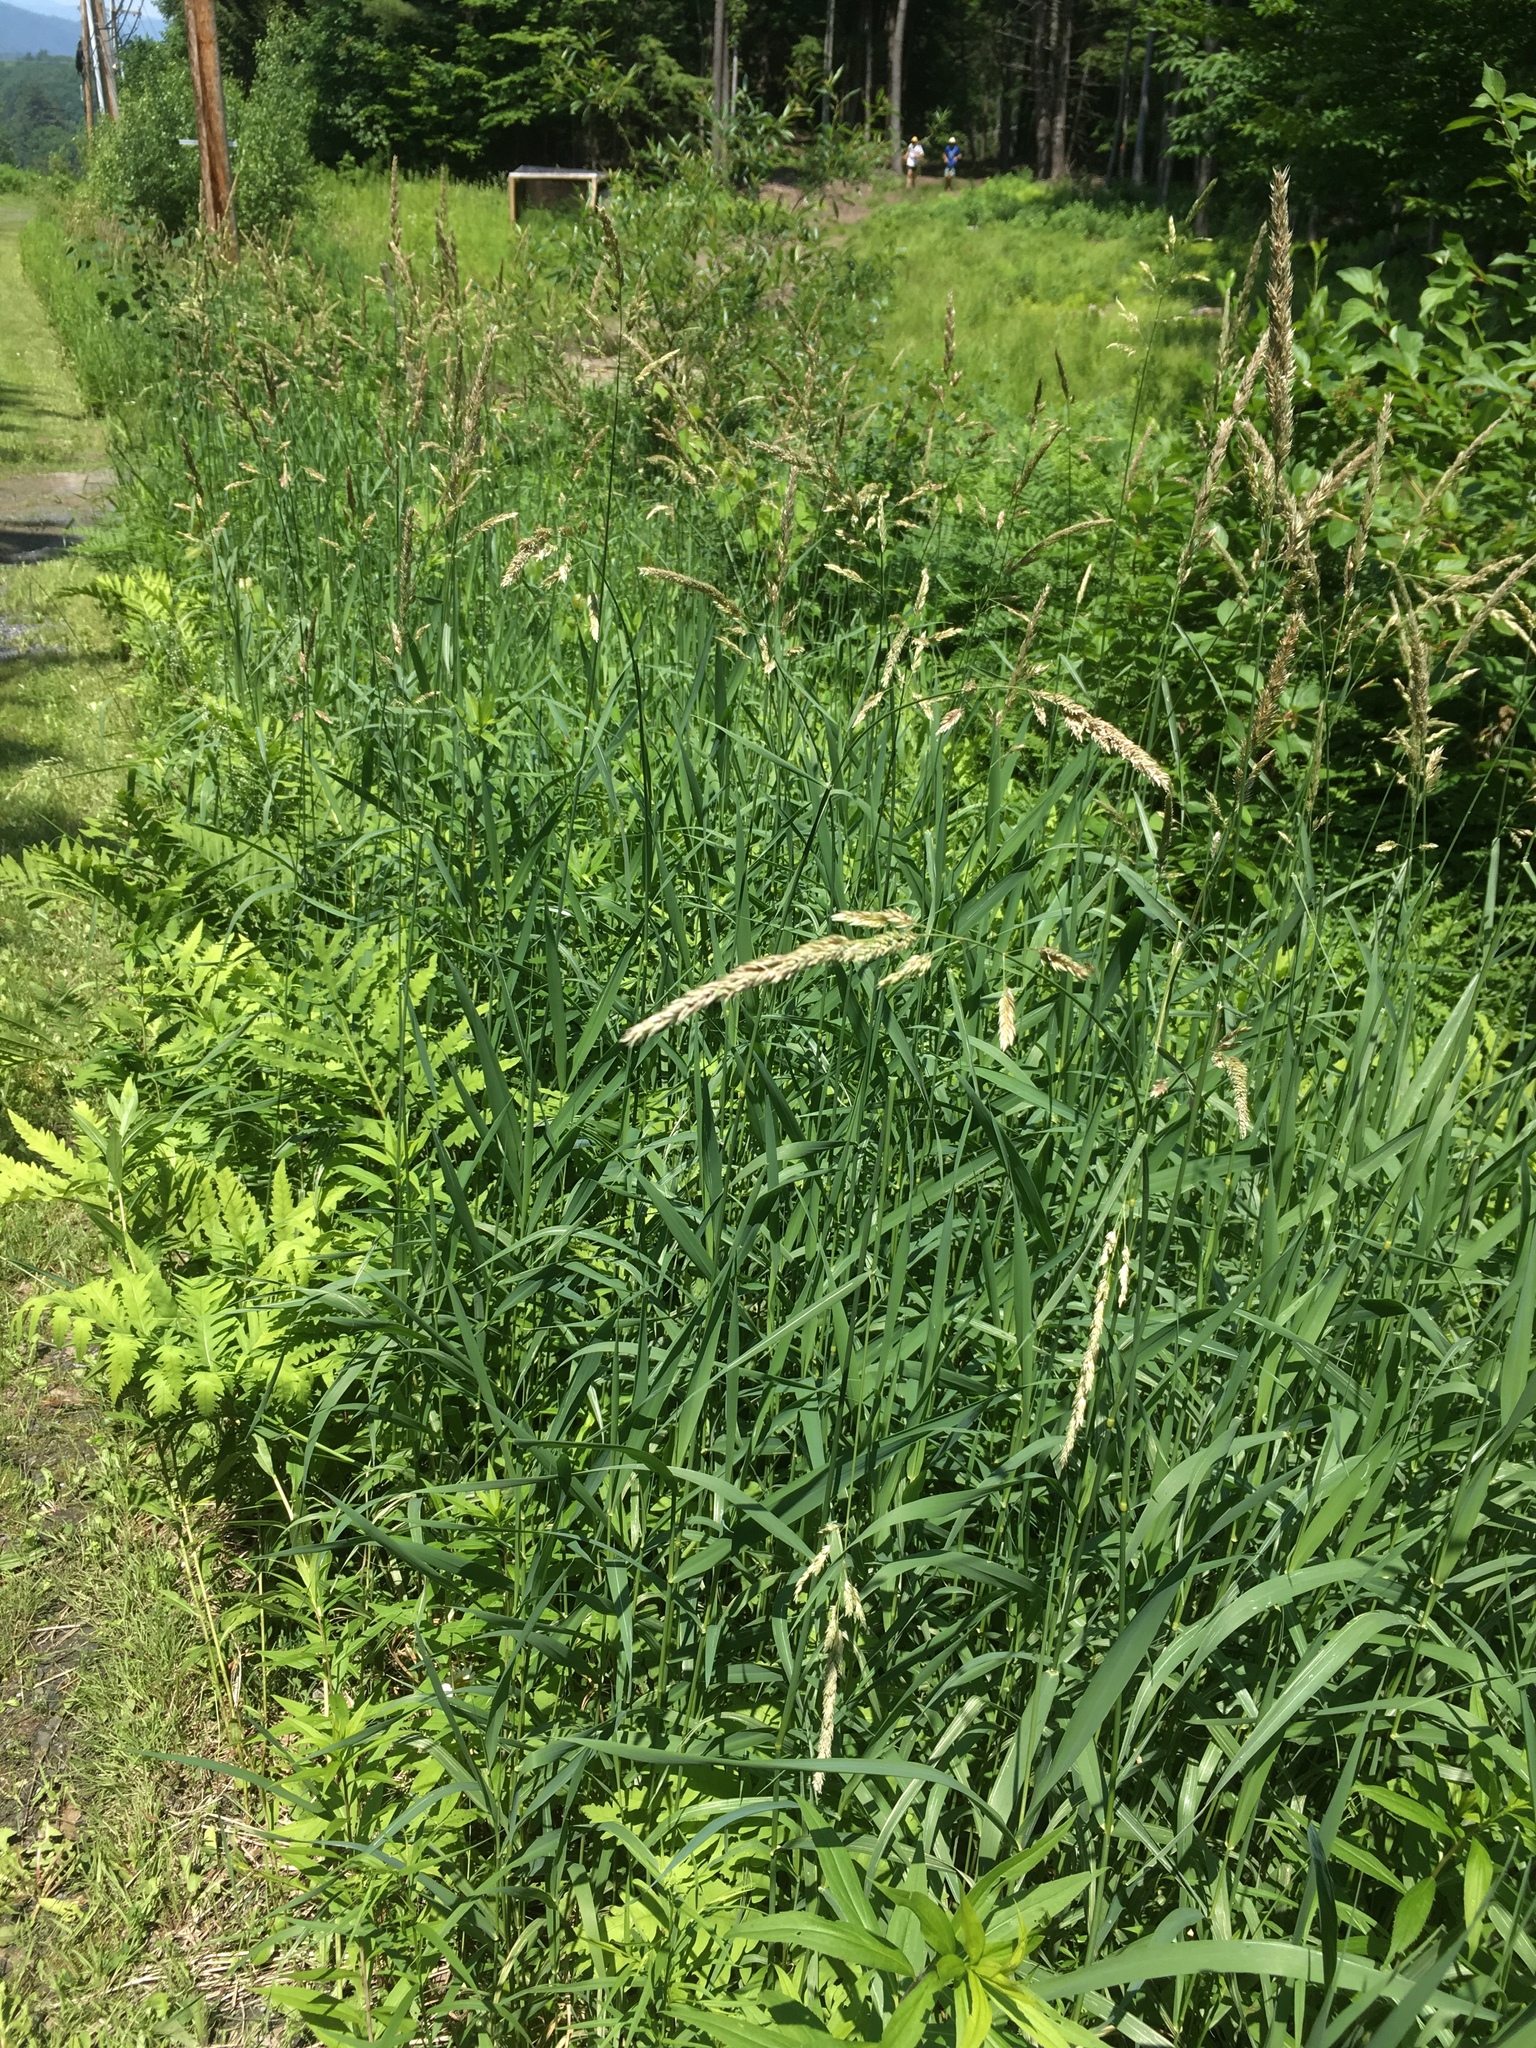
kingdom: Plantae
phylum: Tracheophyta
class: Liliopsida
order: Poales
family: Poaceae
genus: Phalaris
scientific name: Phalaris arundinacea
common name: Reed canary-grass
